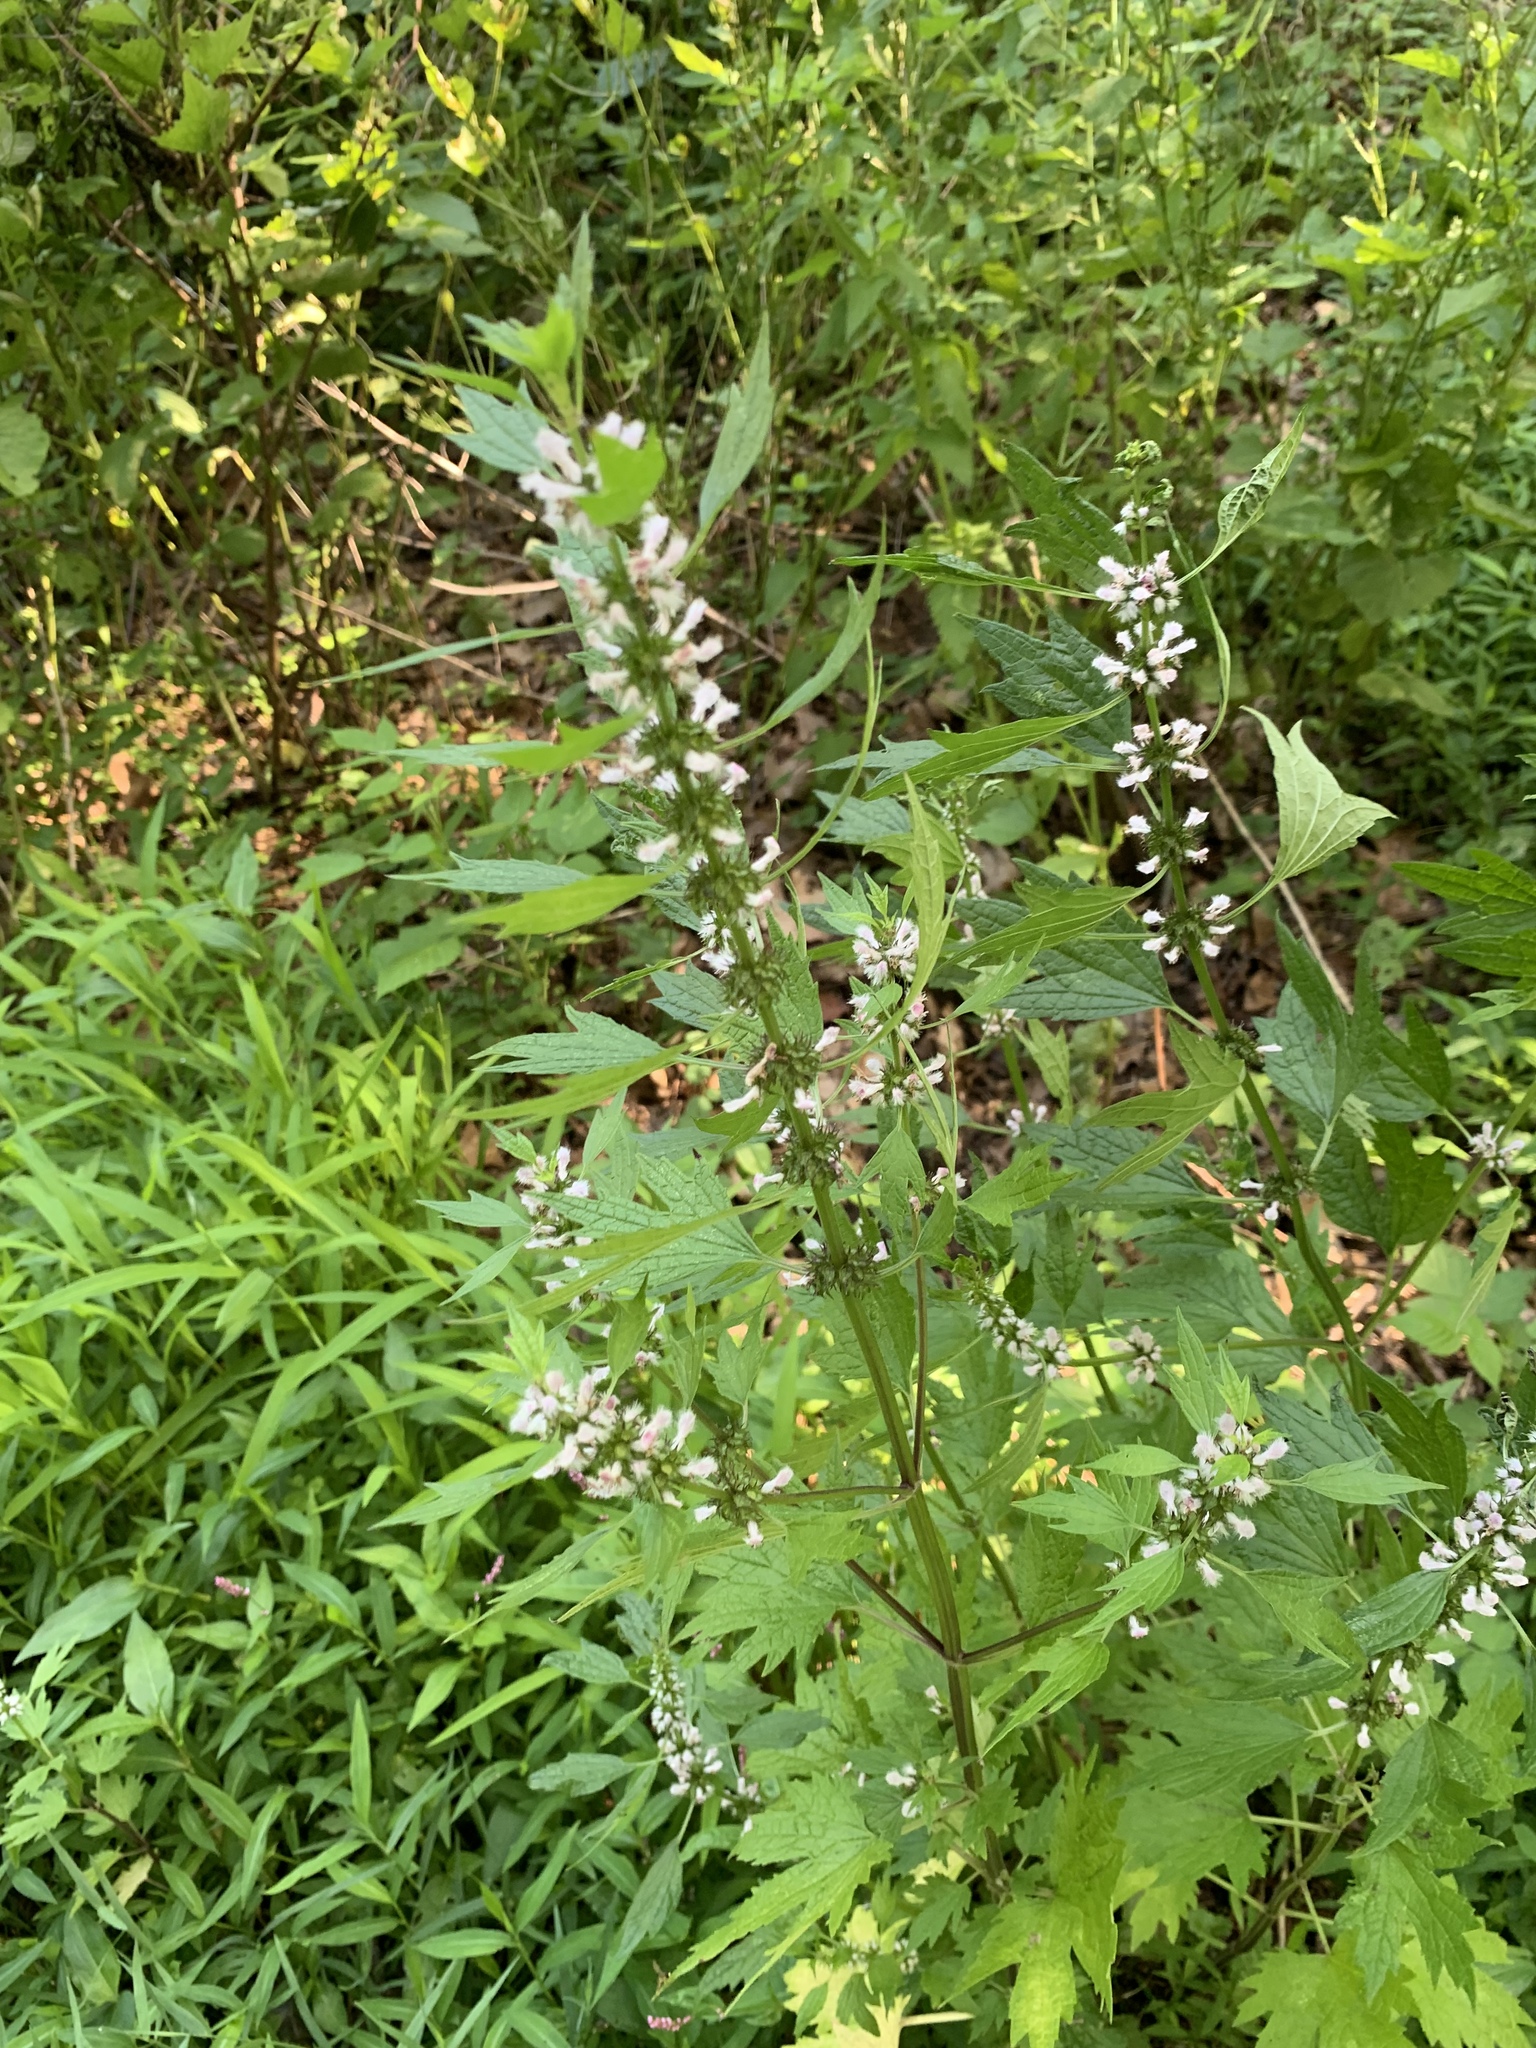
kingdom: Plantae
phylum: Tracheophyta
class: Magnoliopsida
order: Lamiales
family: Lamiaceae
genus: Leonurus
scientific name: Leonurus cardiaca
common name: Motherwort
